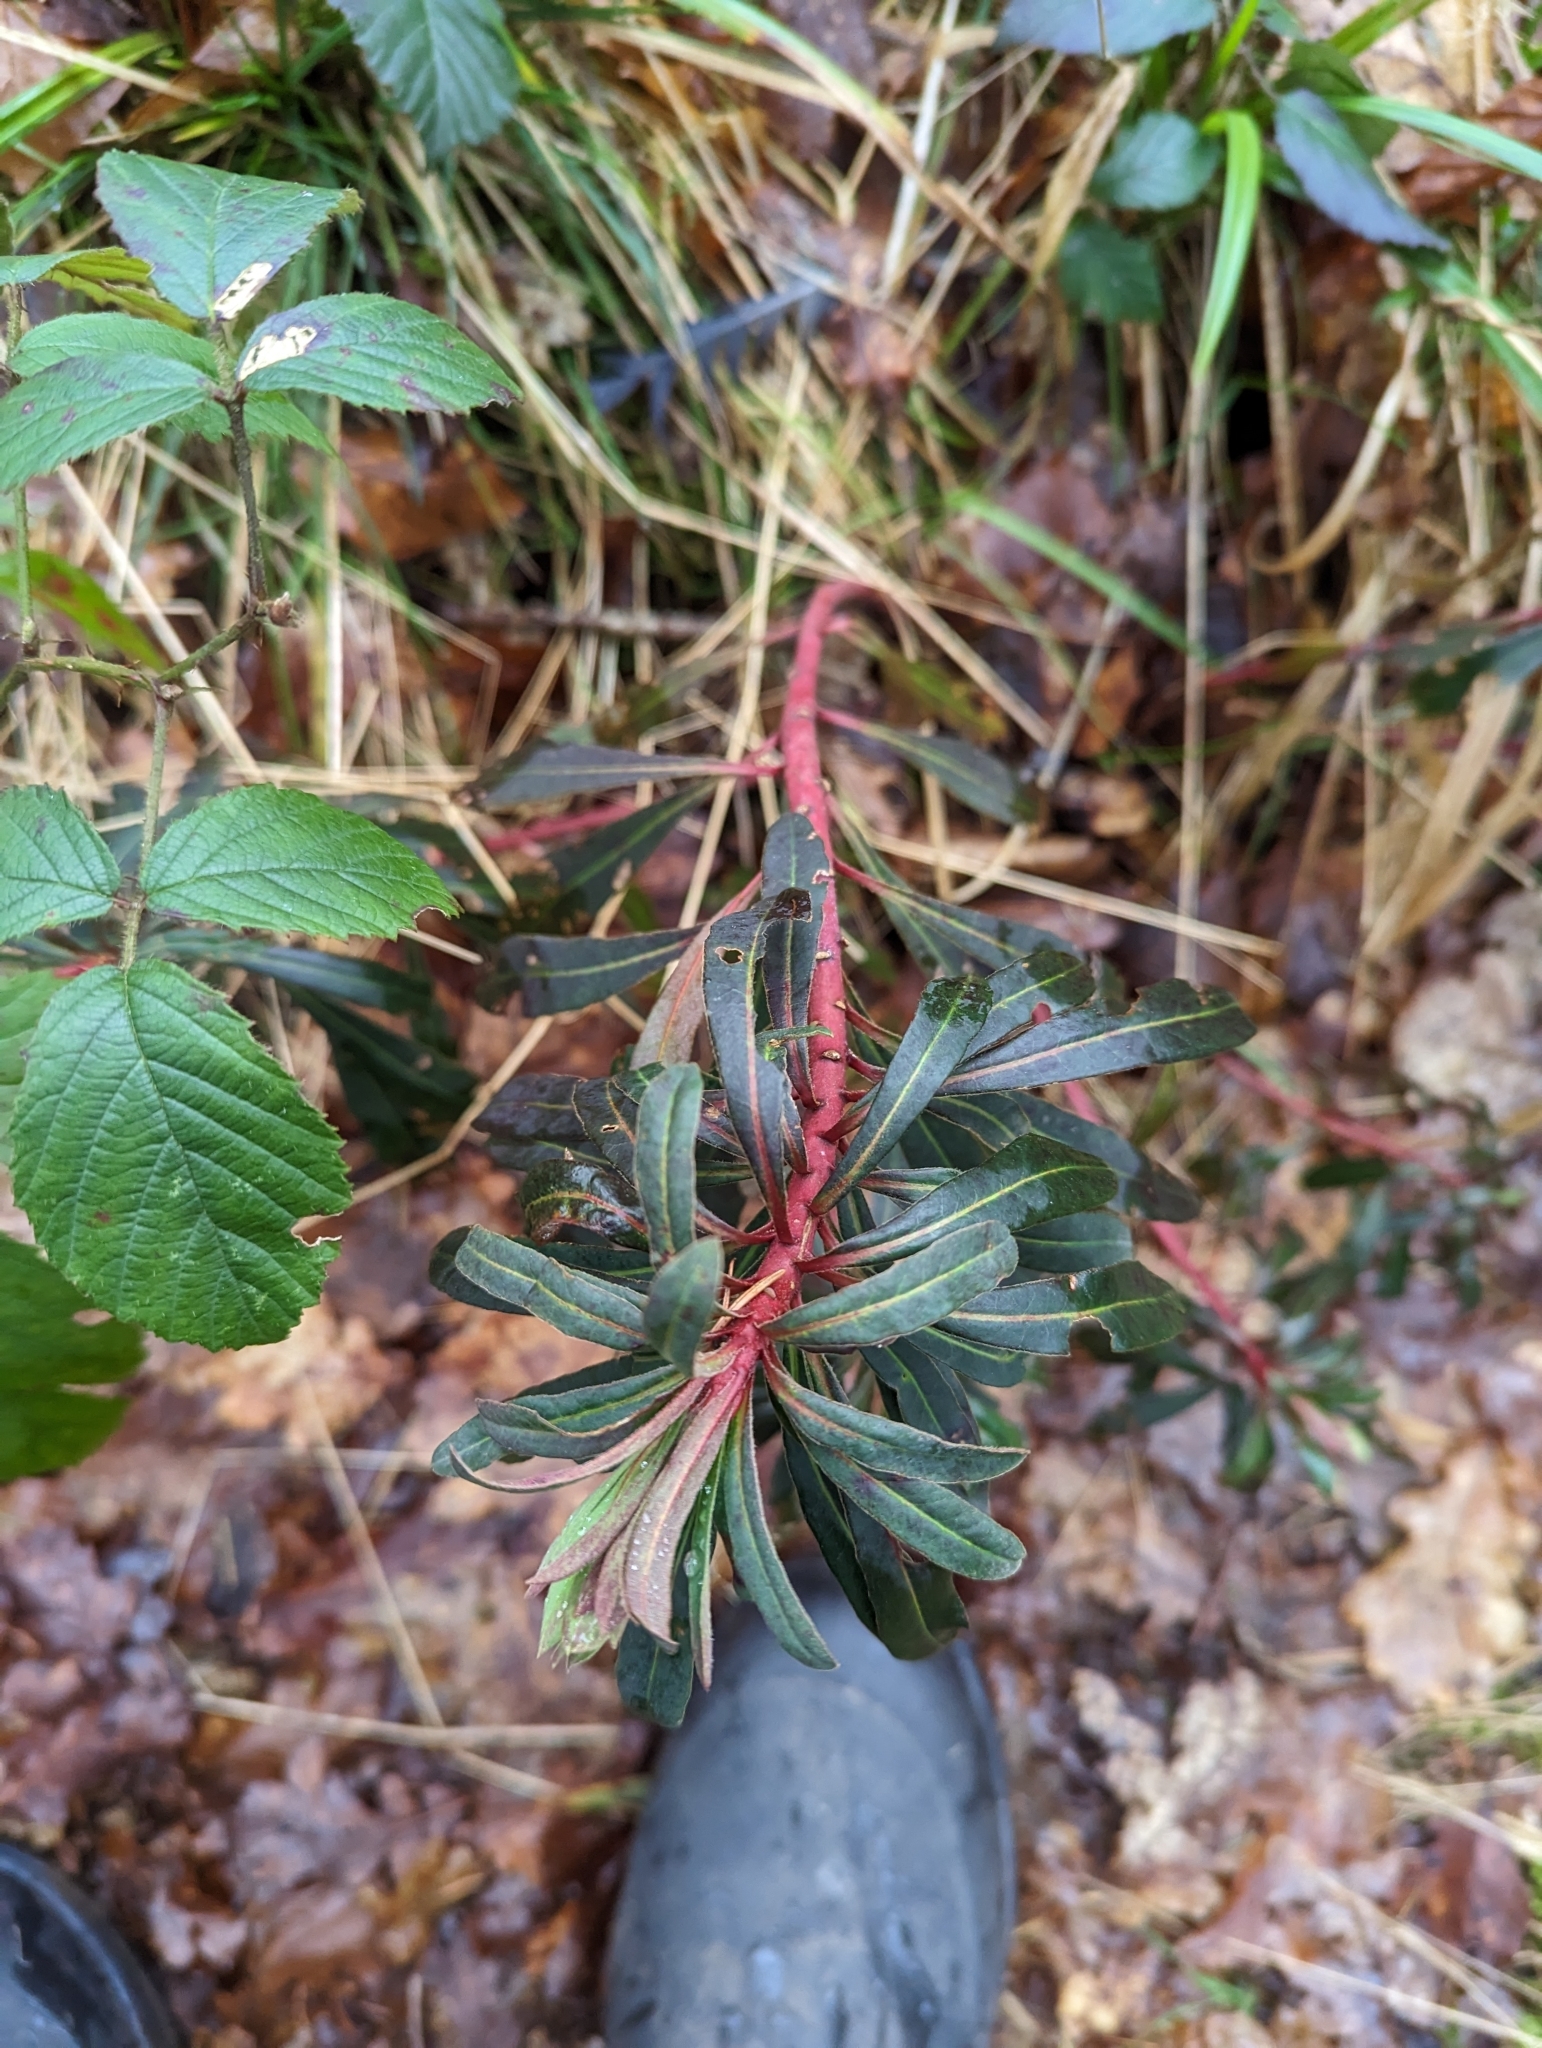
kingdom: Plantae
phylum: Tracheophyta
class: Magnoliopsida
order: Malpighiales
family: Euphorbiaceae
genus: Euphorbia
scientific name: Euphorbia amygdaloides
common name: Wood spurge
